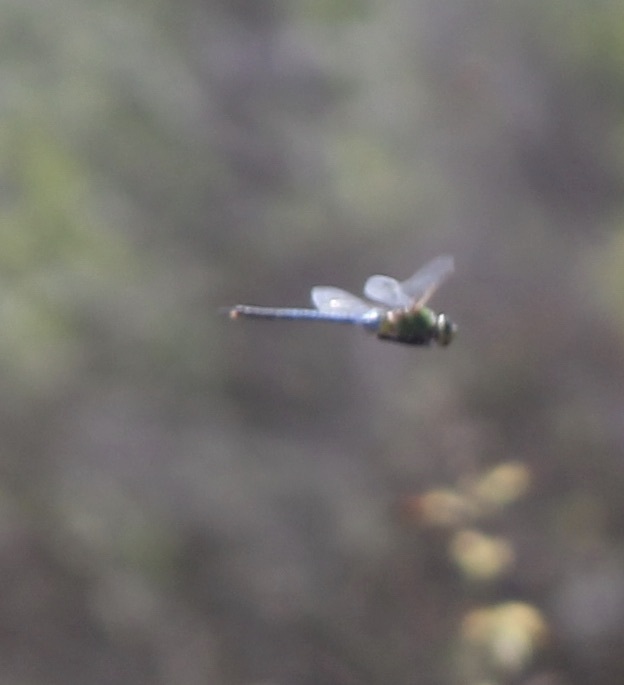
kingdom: Animalia
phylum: Arthropoda
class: Insecta
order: Odonata
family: Aeshnidae
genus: Anax
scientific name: Anax junius
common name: Common green darner
